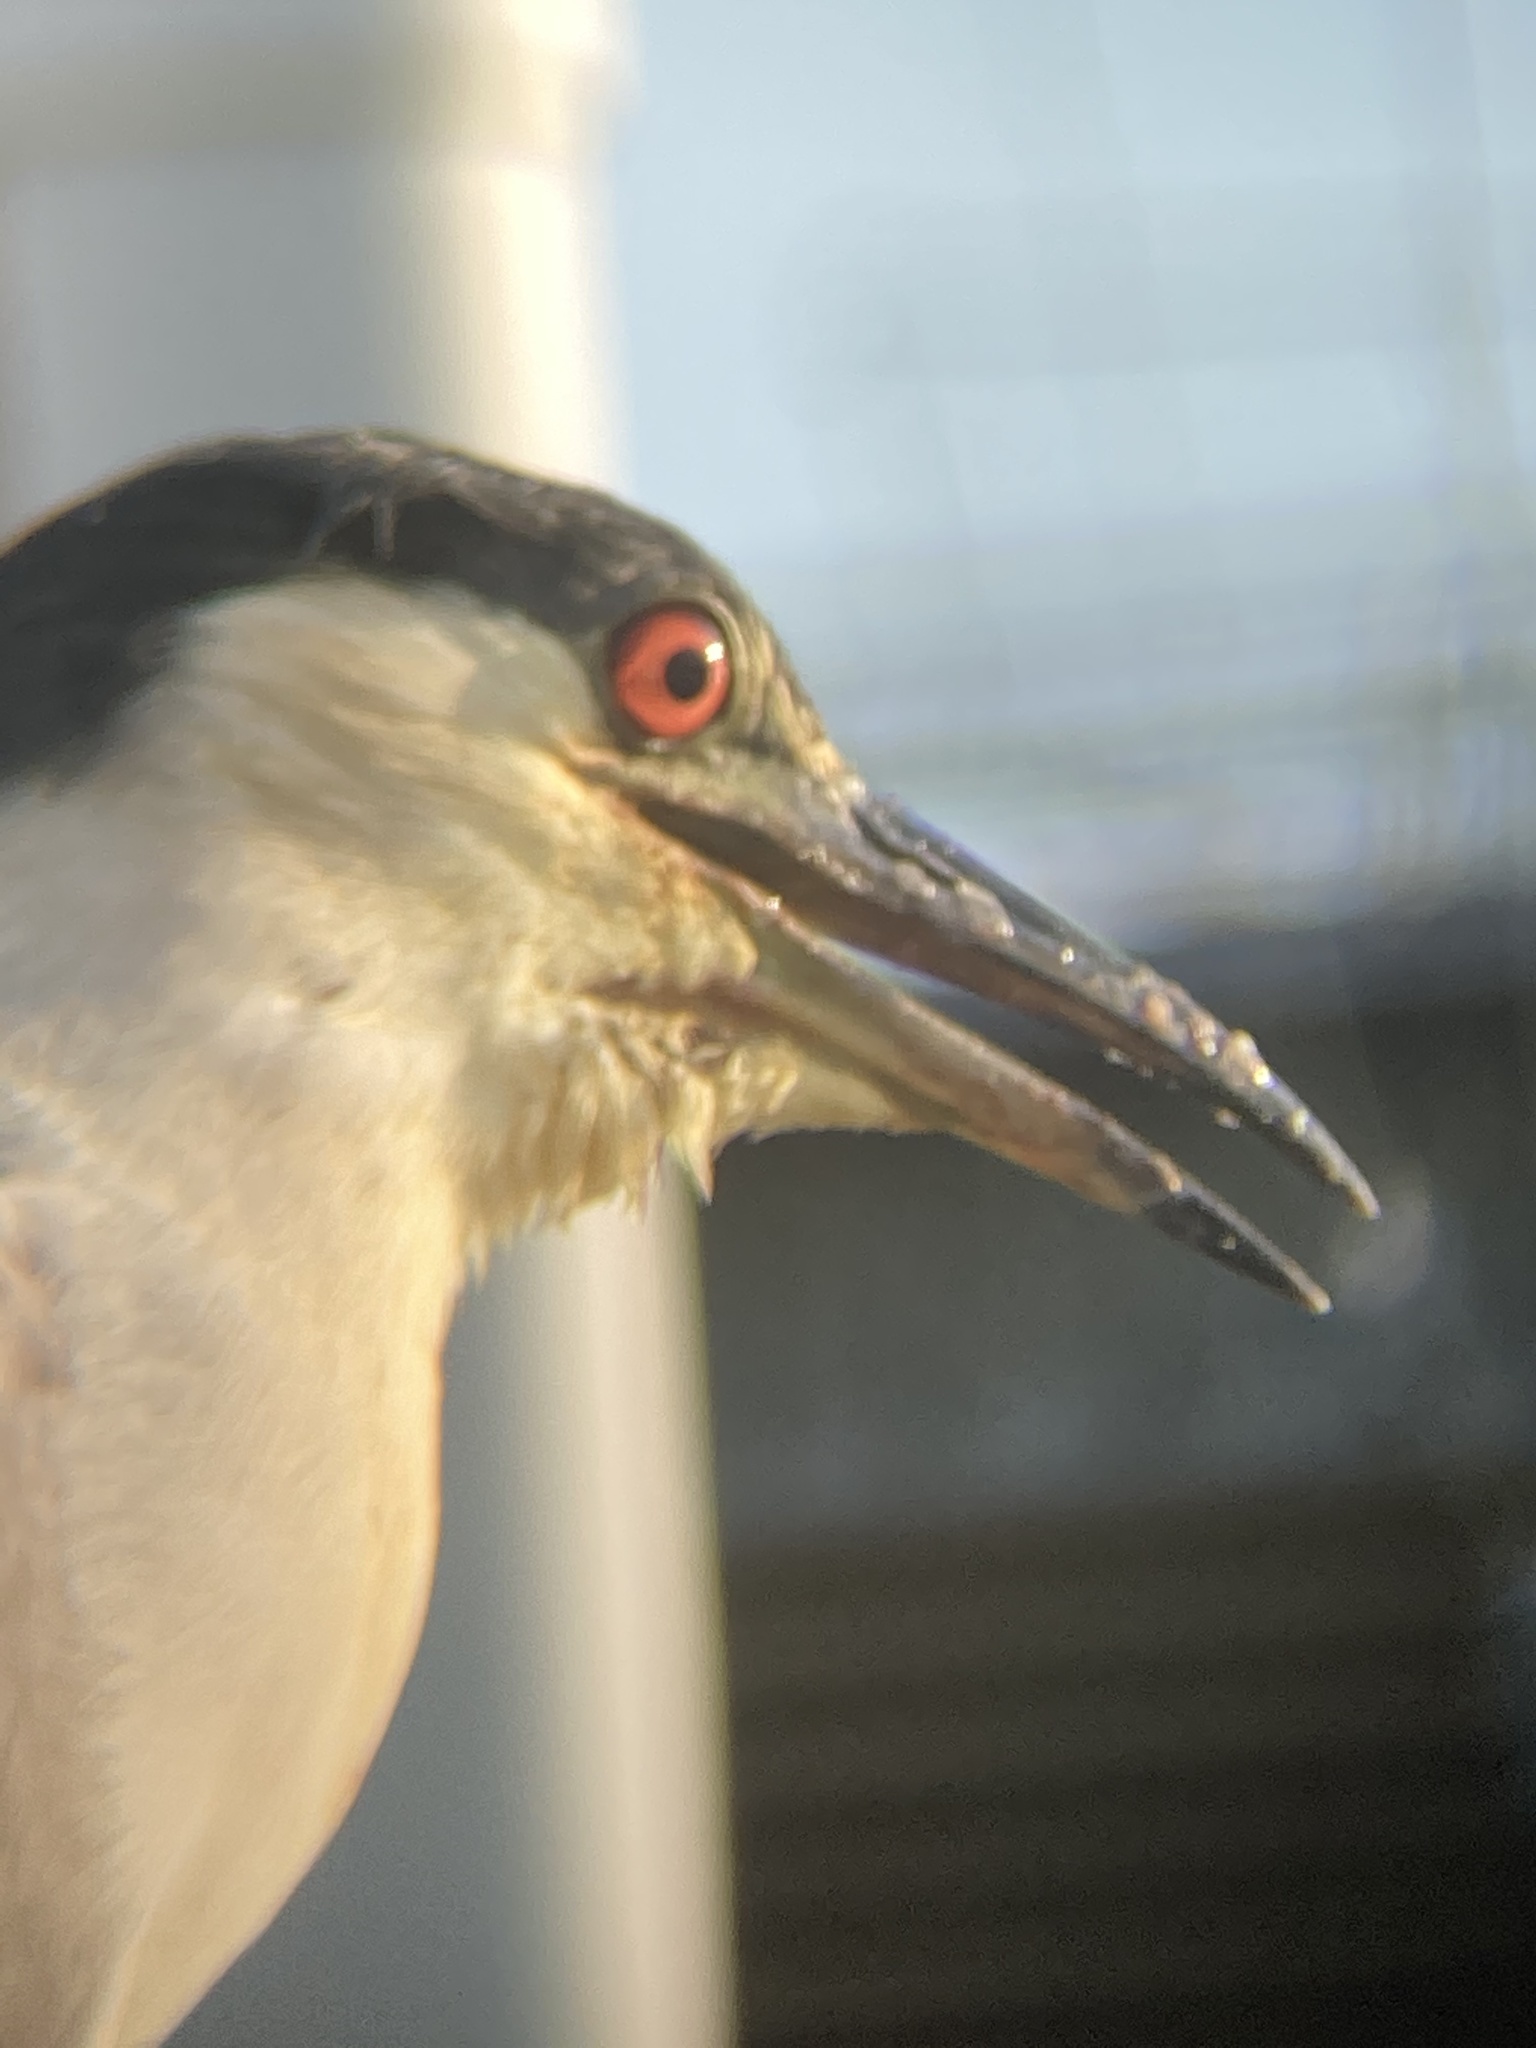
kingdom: Animalia
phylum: Chordata
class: Aves
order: Pelecaniformes
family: Ardeidae
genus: Nycticorax
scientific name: Nycticorax nycticorax
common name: Black-crowned night heron
